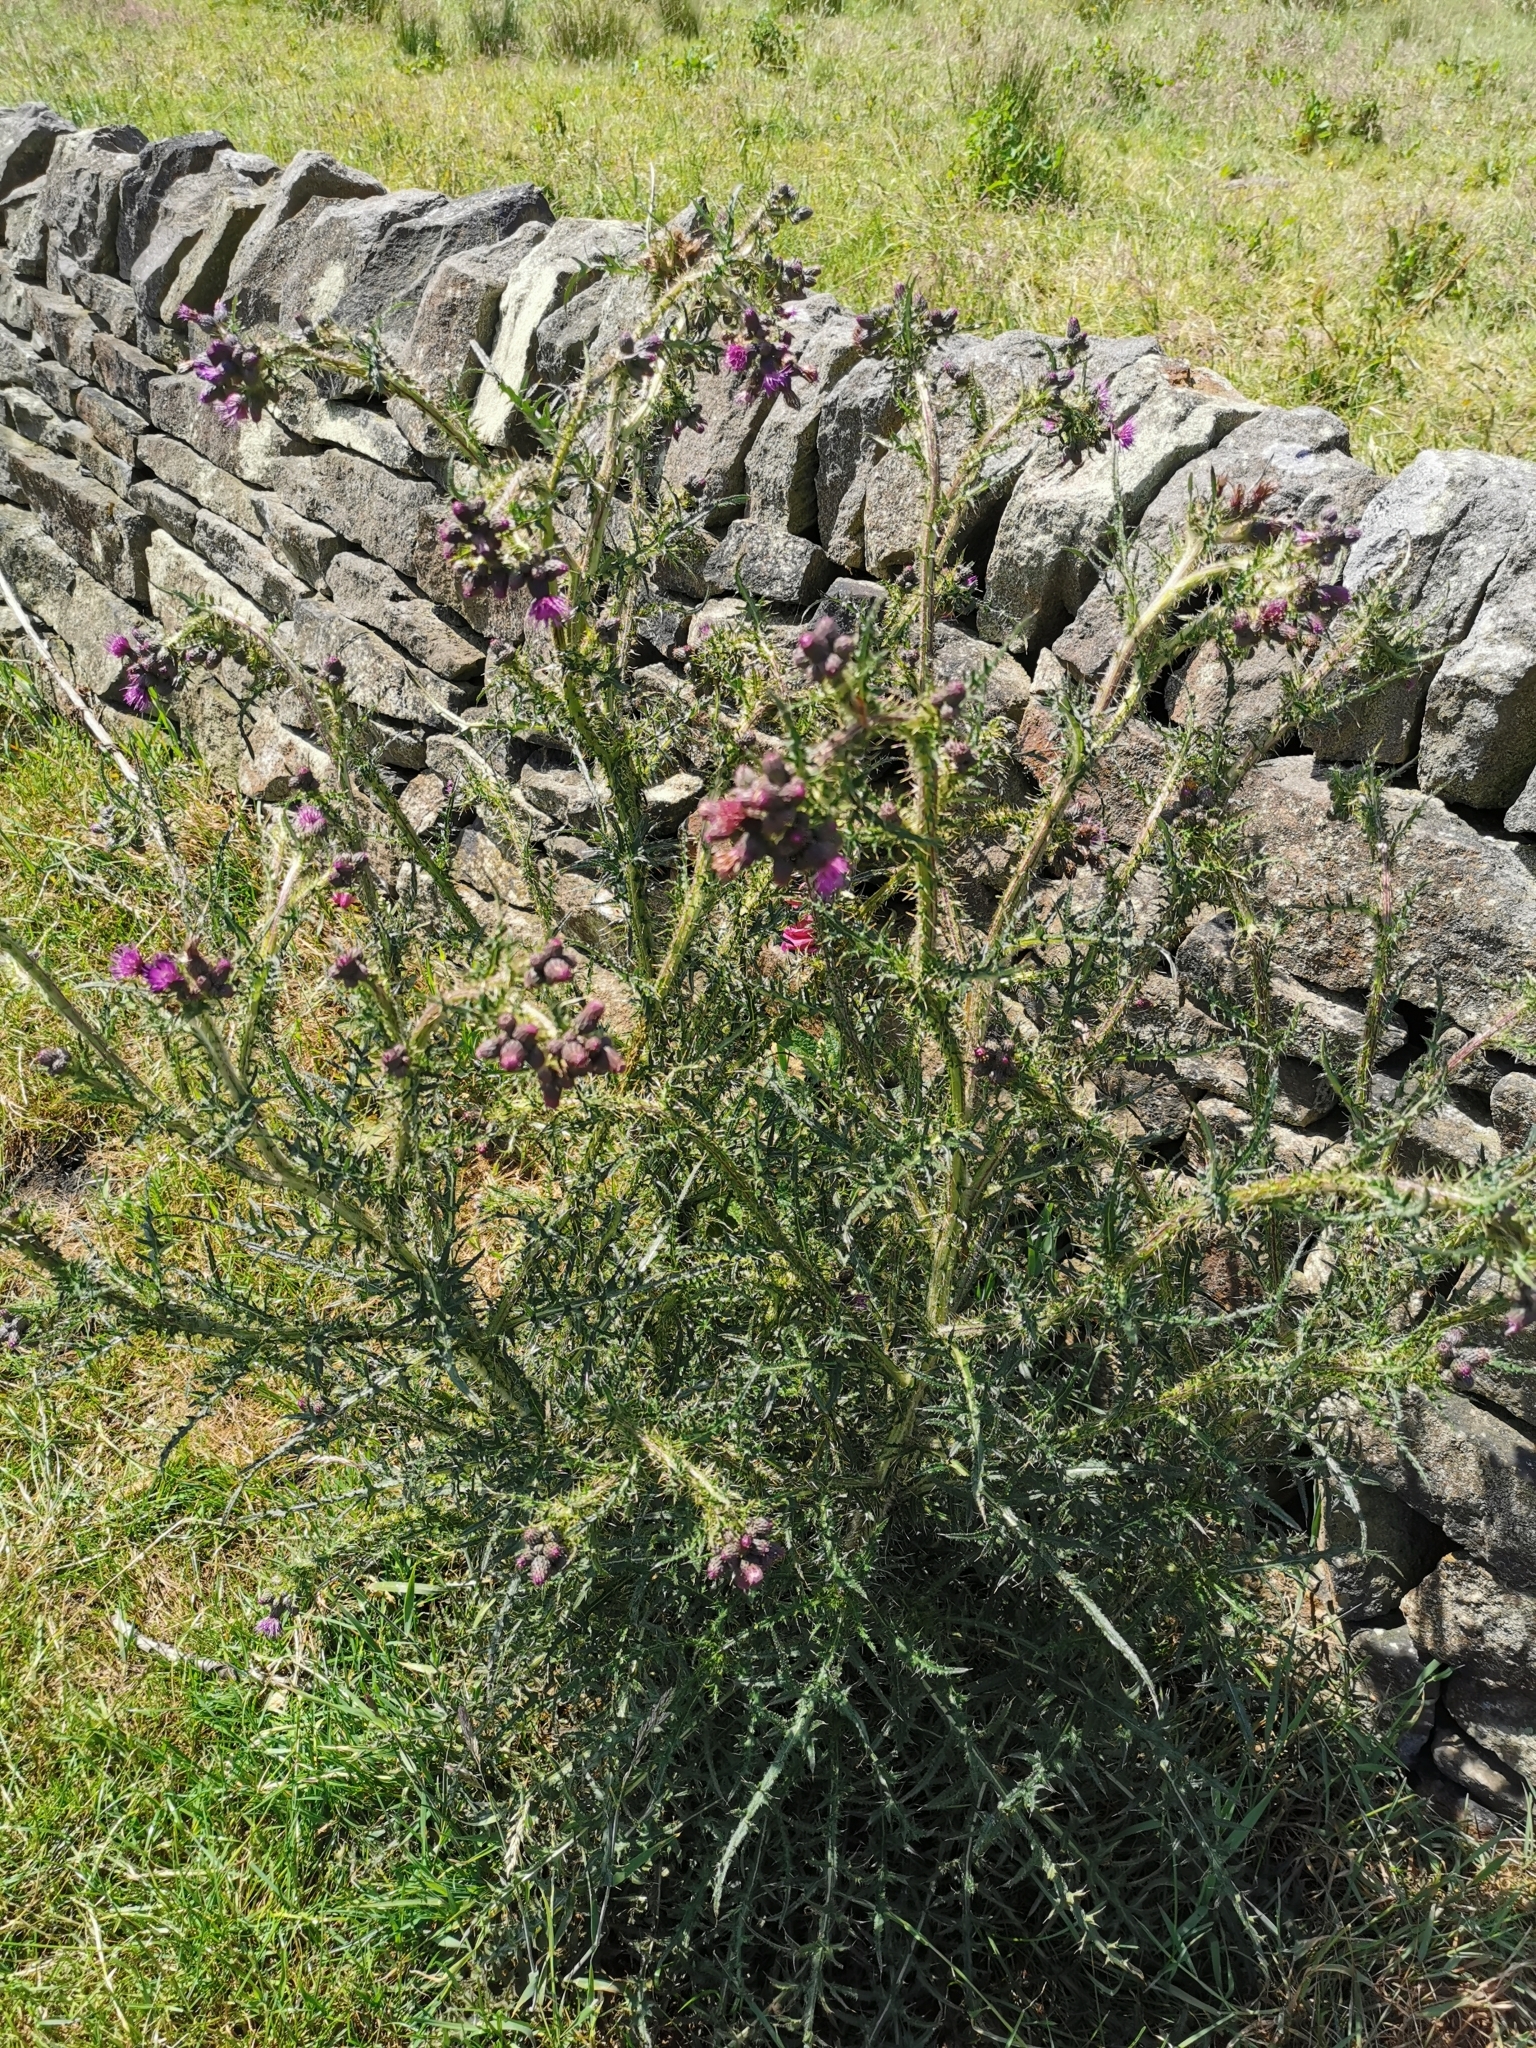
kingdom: Plantae
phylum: Tracheophyta
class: Magnoliopsida
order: Asterales
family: Asteraceae
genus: Cirsium
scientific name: Cirsium palustre
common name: Marsh thistle
